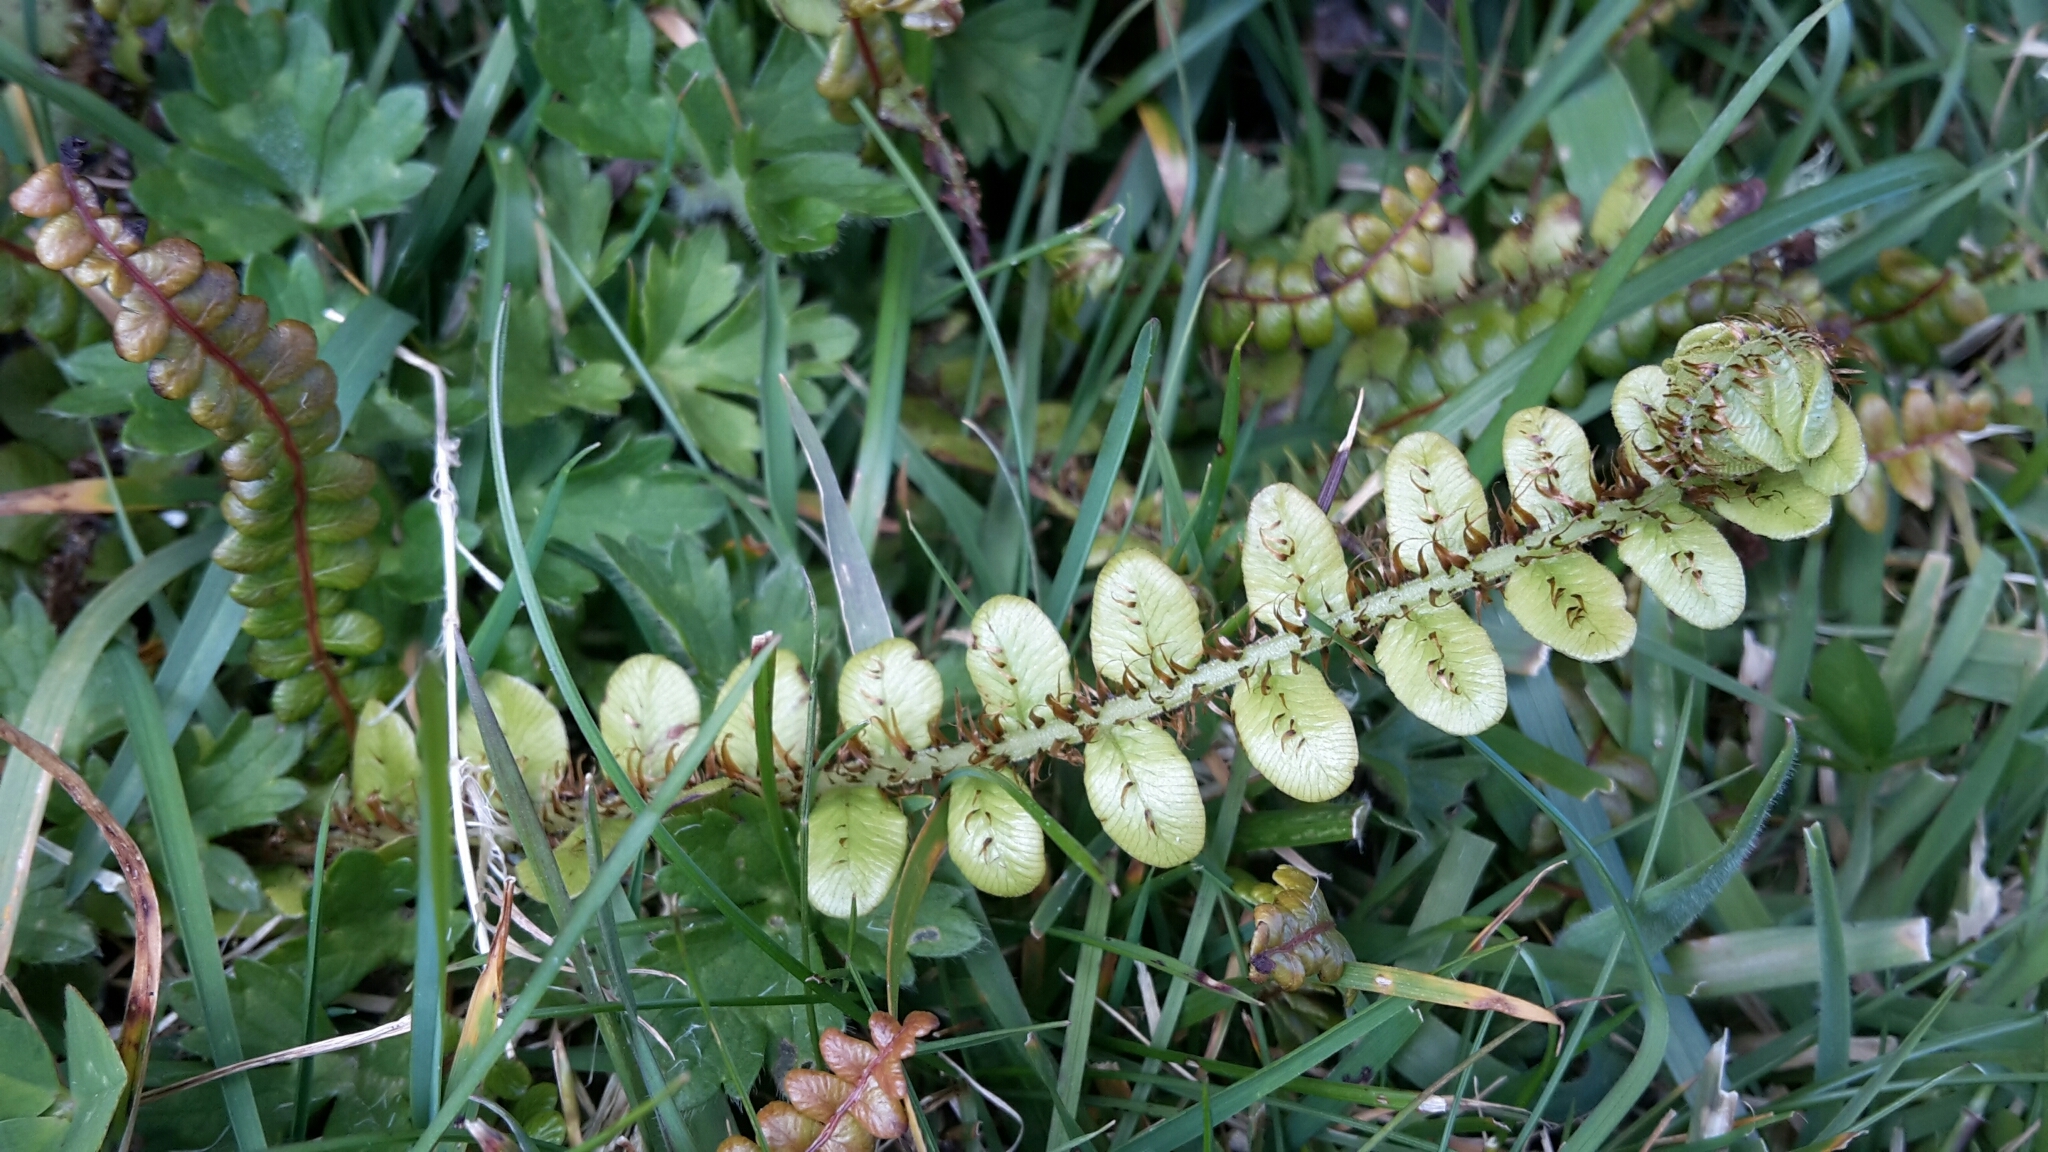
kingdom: Plantae
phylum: Tracheophyta
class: Polypodiopsida
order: Polypodiales
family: Blechnaceae
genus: Cranfillia
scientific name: Cranfillia fluviatilis
